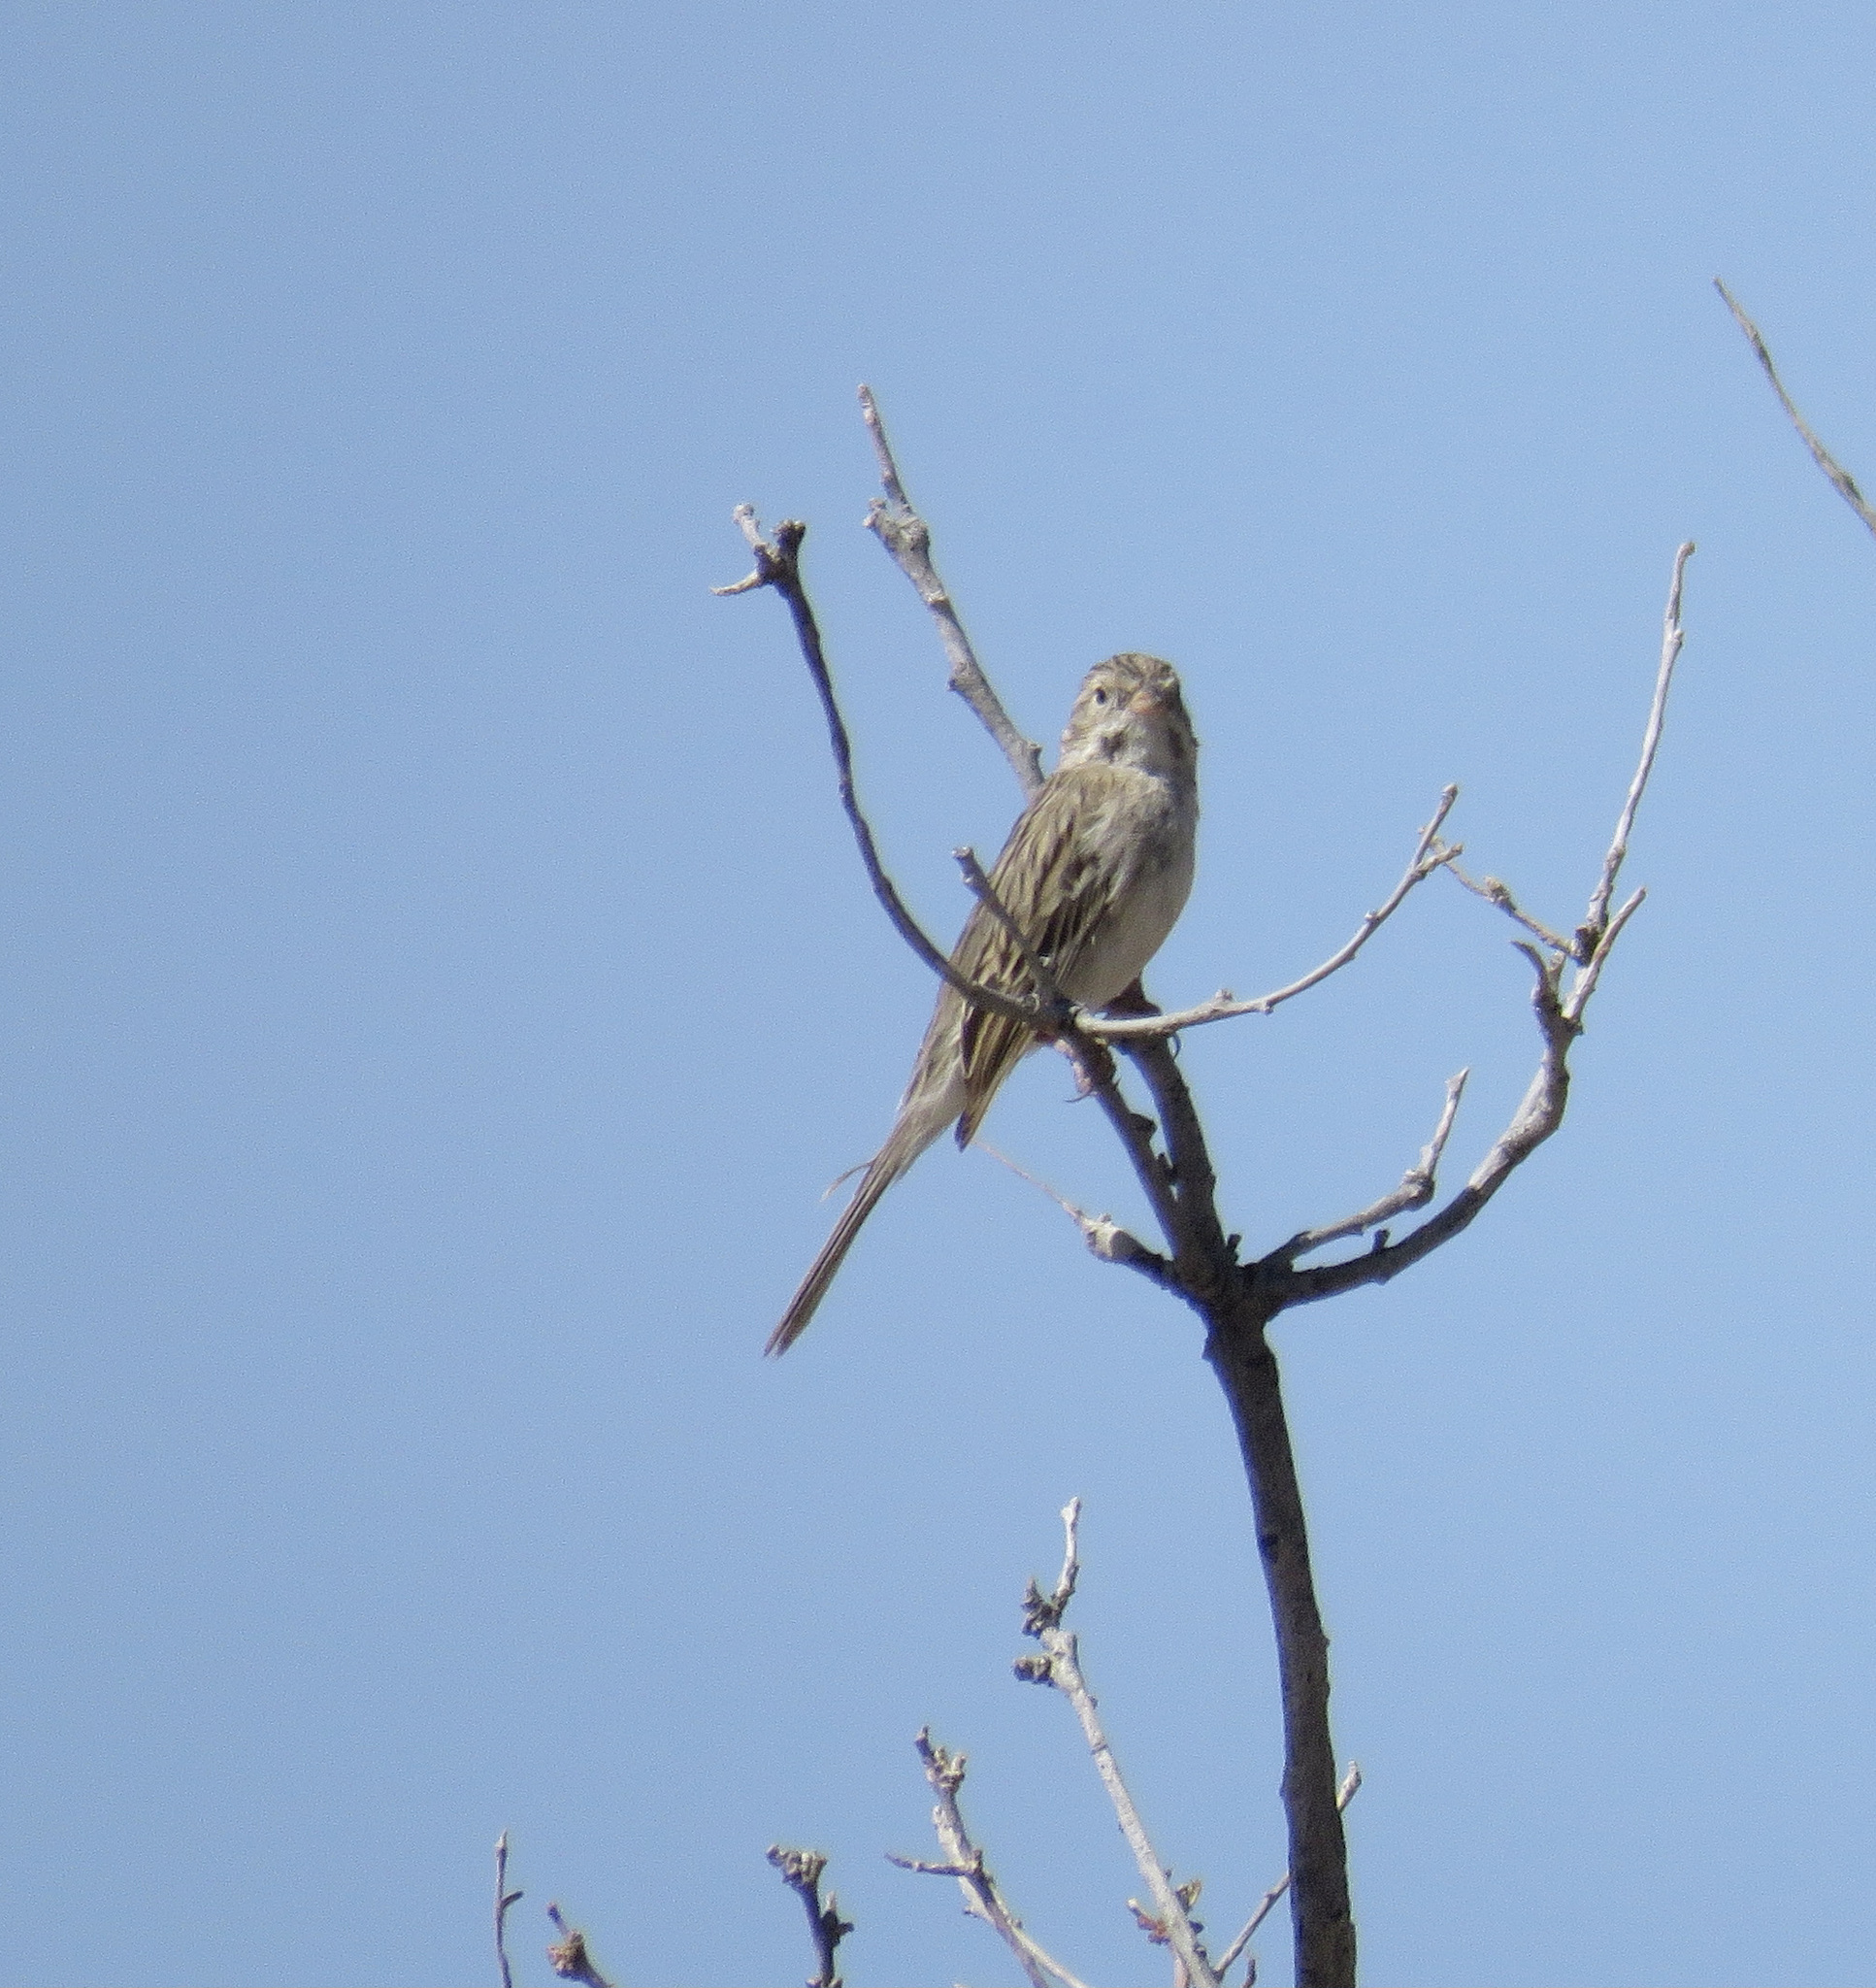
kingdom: Animalia
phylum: Chordata
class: Aves
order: Passeriformes
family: Passerellidae
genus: Spizella
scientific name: Spizella breweri
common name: Brewer's sparrow
